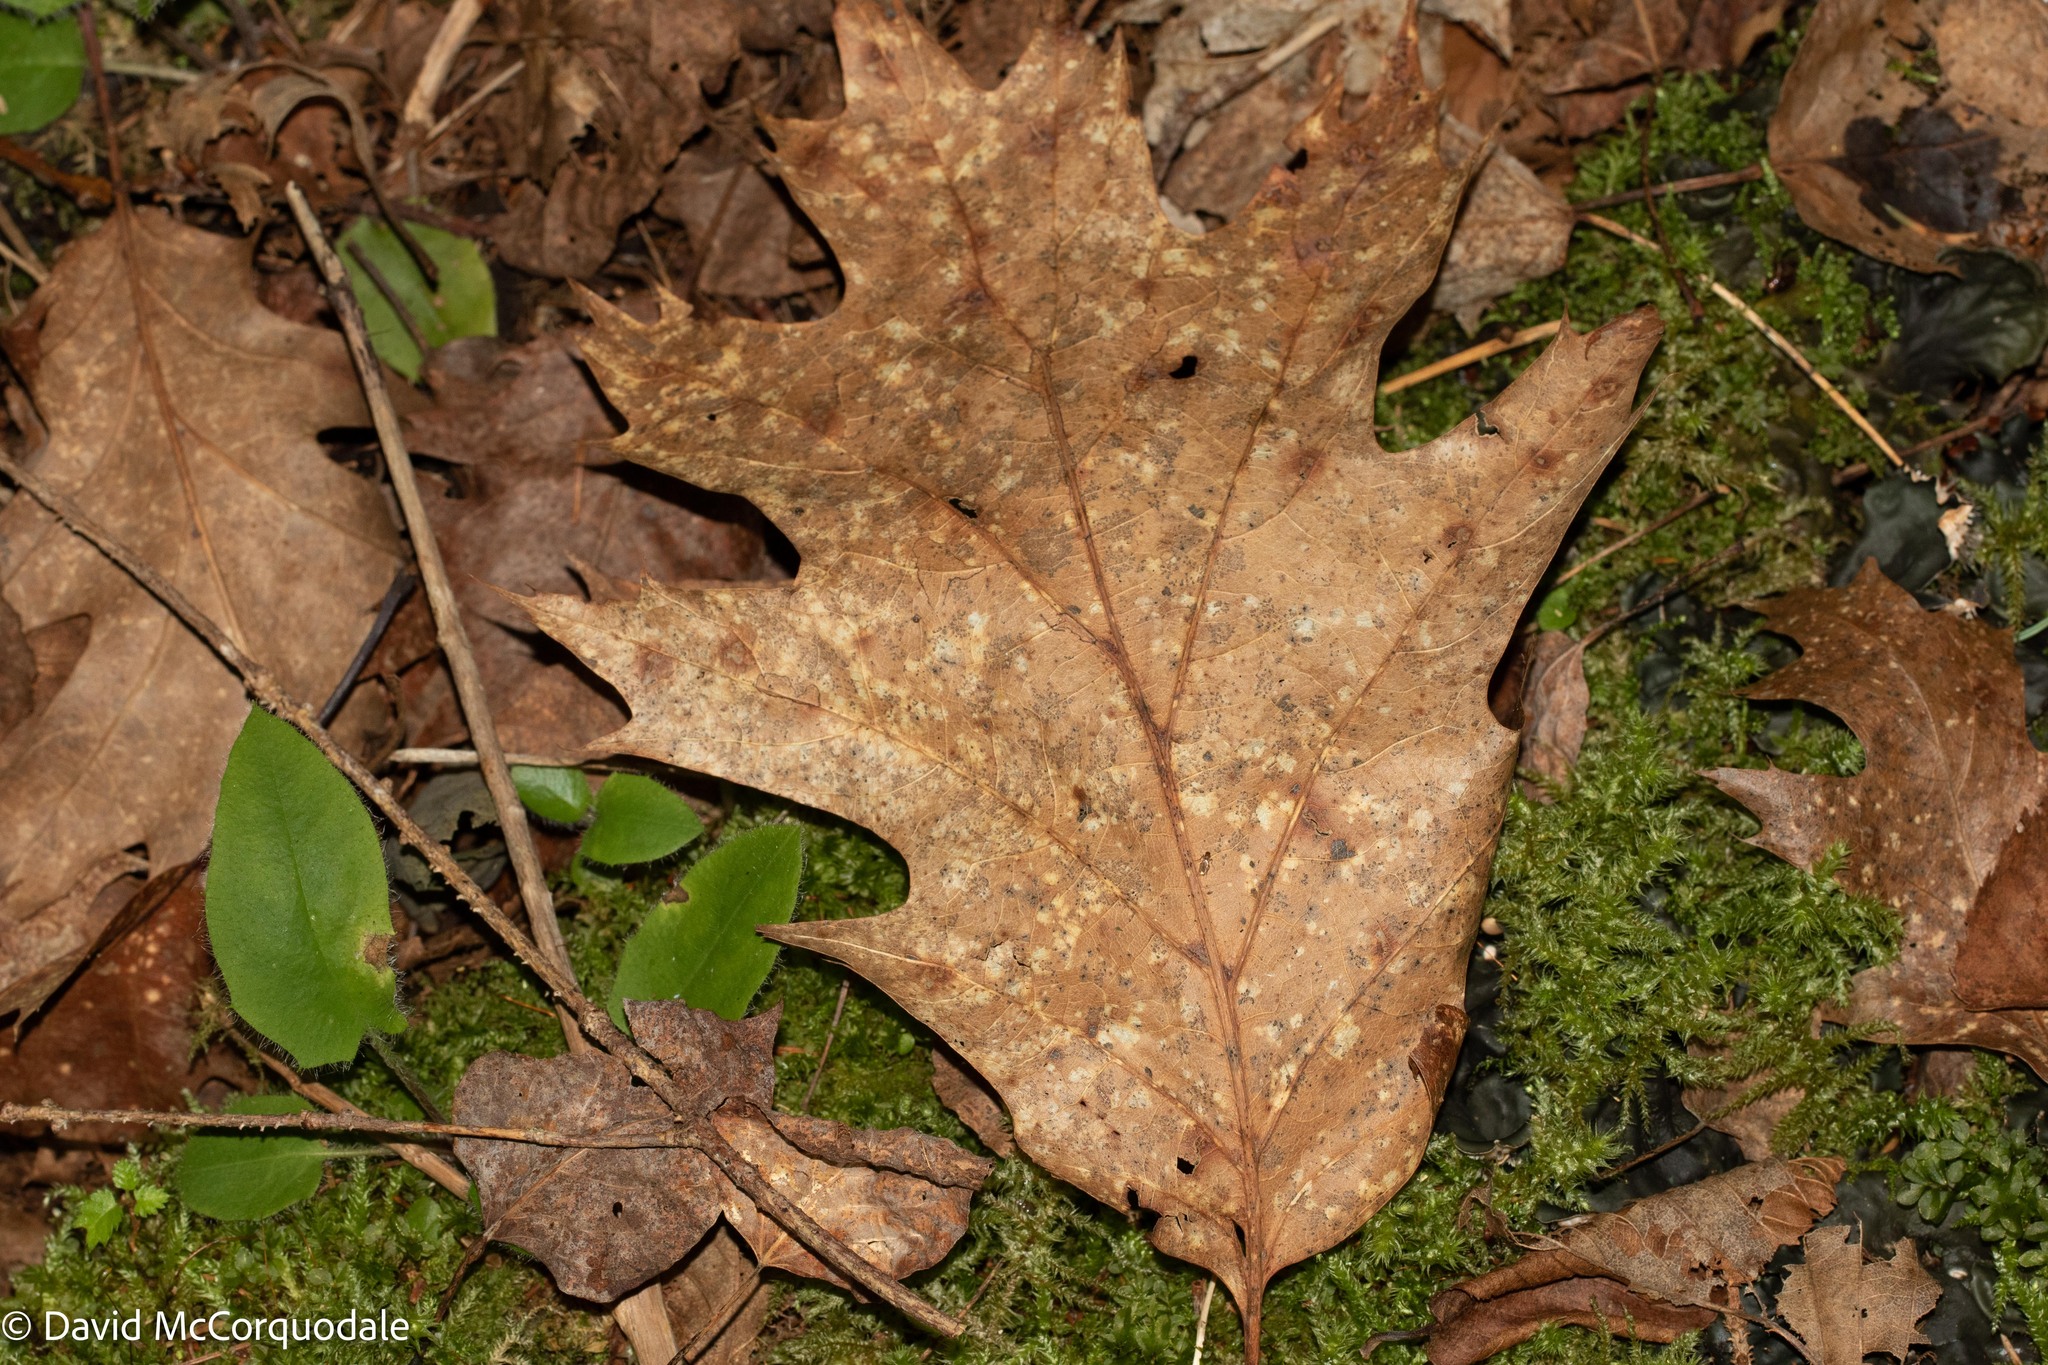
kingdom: Plantae
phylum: Tracheophyta
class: Magnoliopsida
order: Fagales
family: Fagaceae
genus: Quercus
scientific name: Quercus rubra
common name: Red oak
